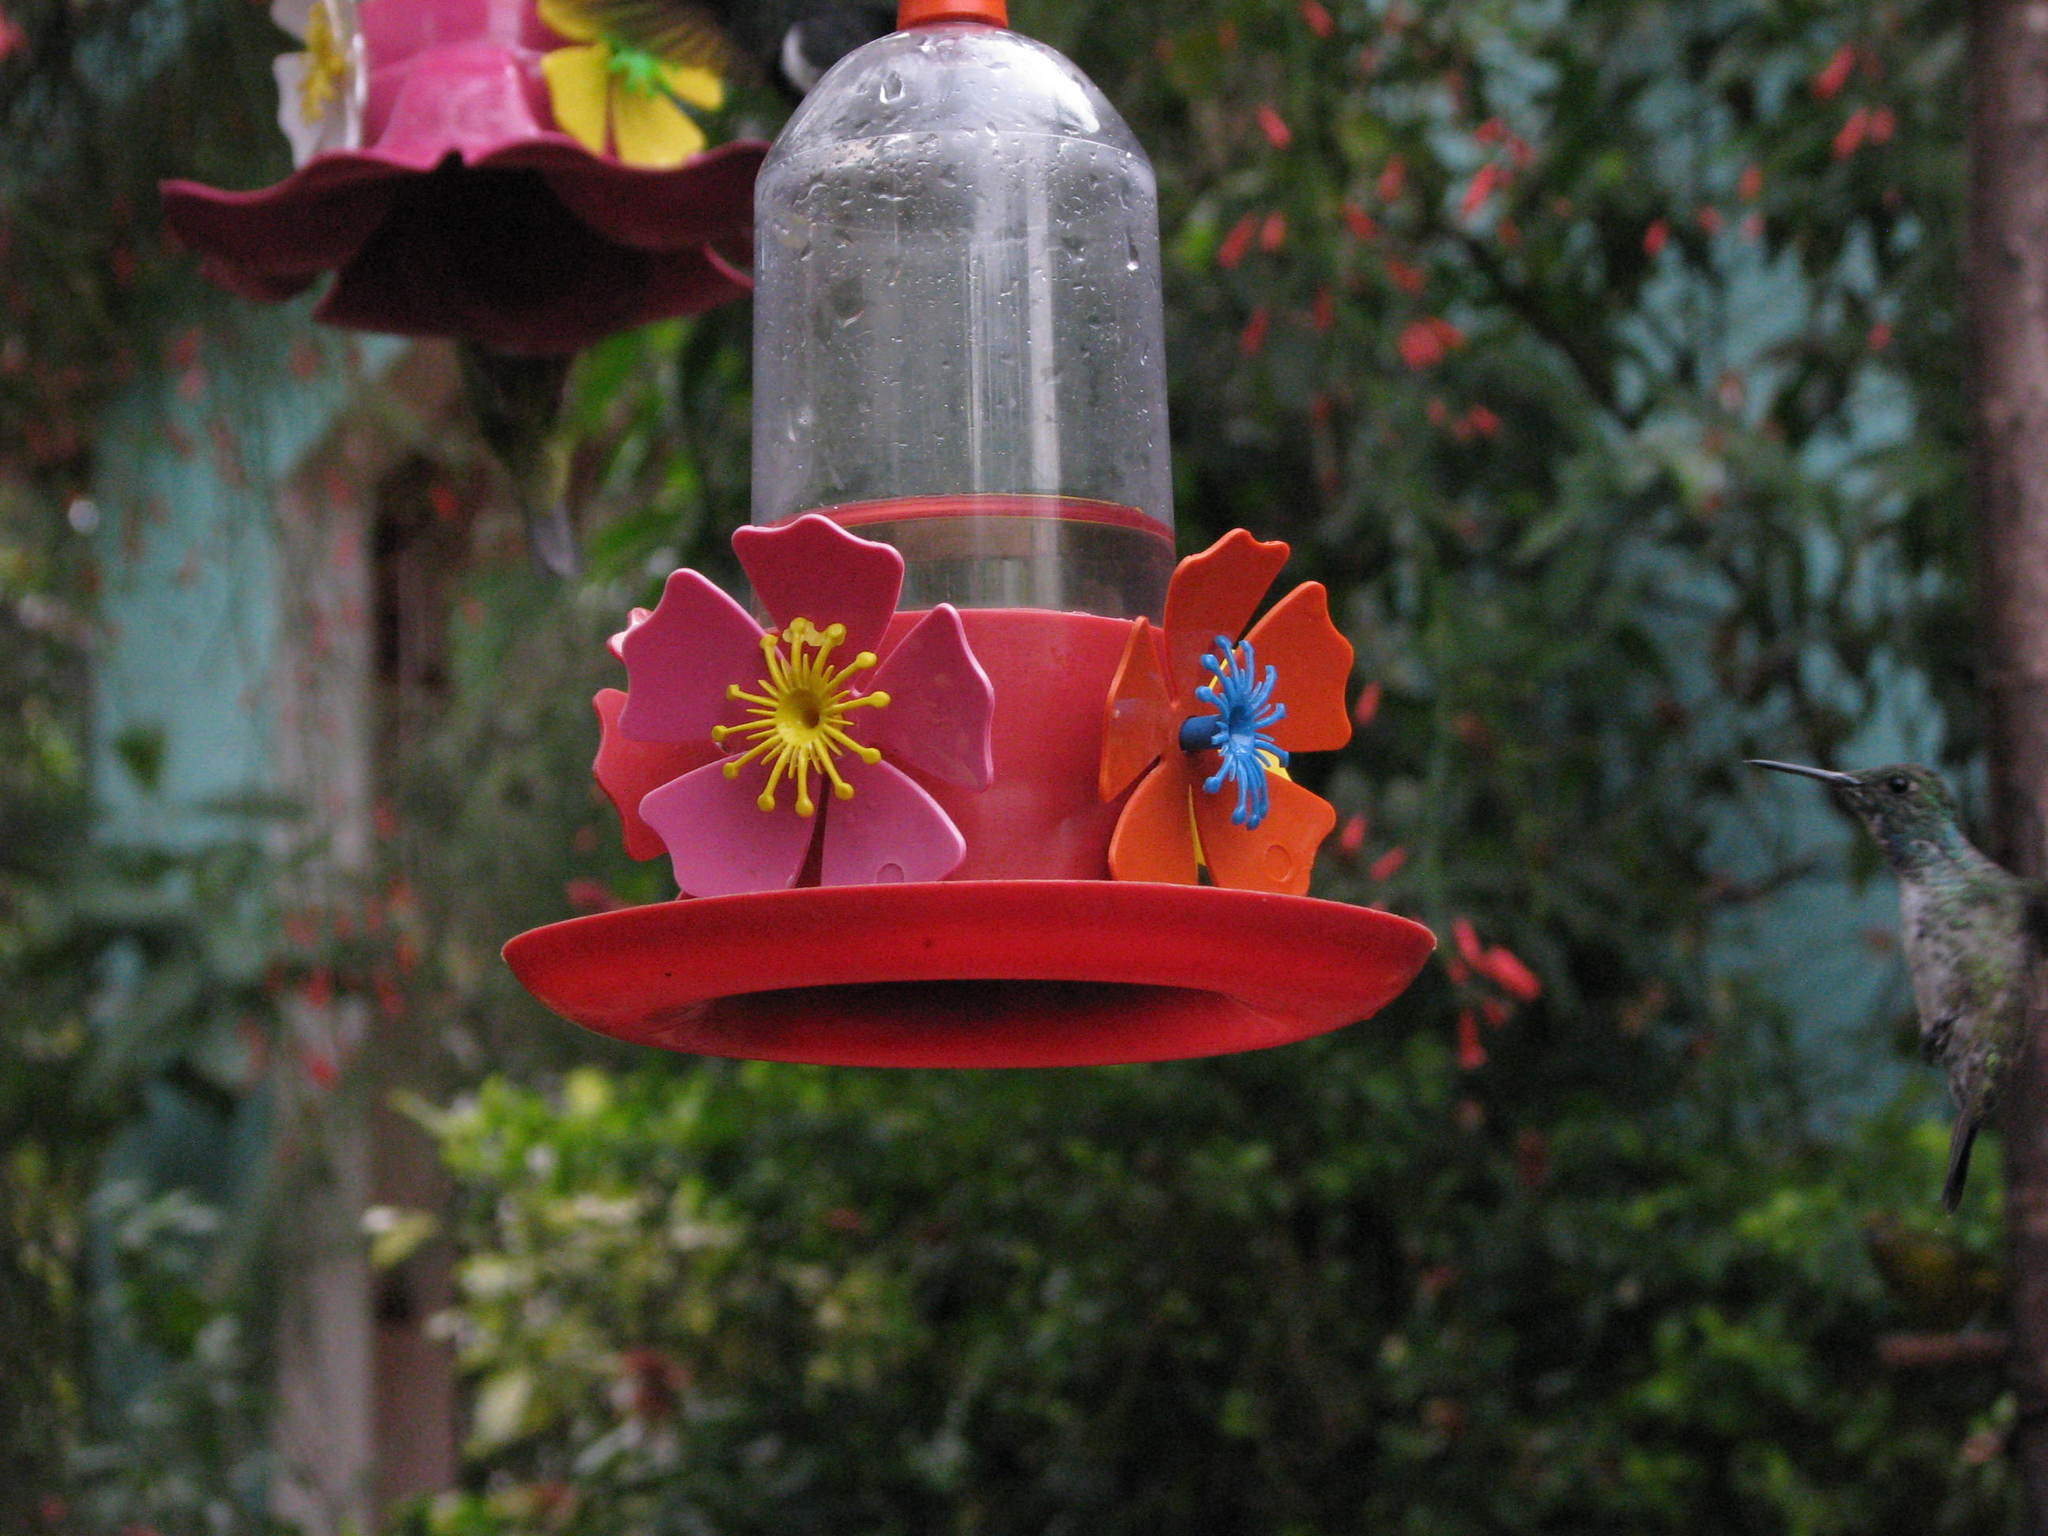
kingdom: Animalia
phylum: Chordata
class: Aves
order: Apodiformes
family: Trochilidae
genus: Chrysuronia
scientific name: Chrysuronia versicolor
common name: Versicolored emerald
